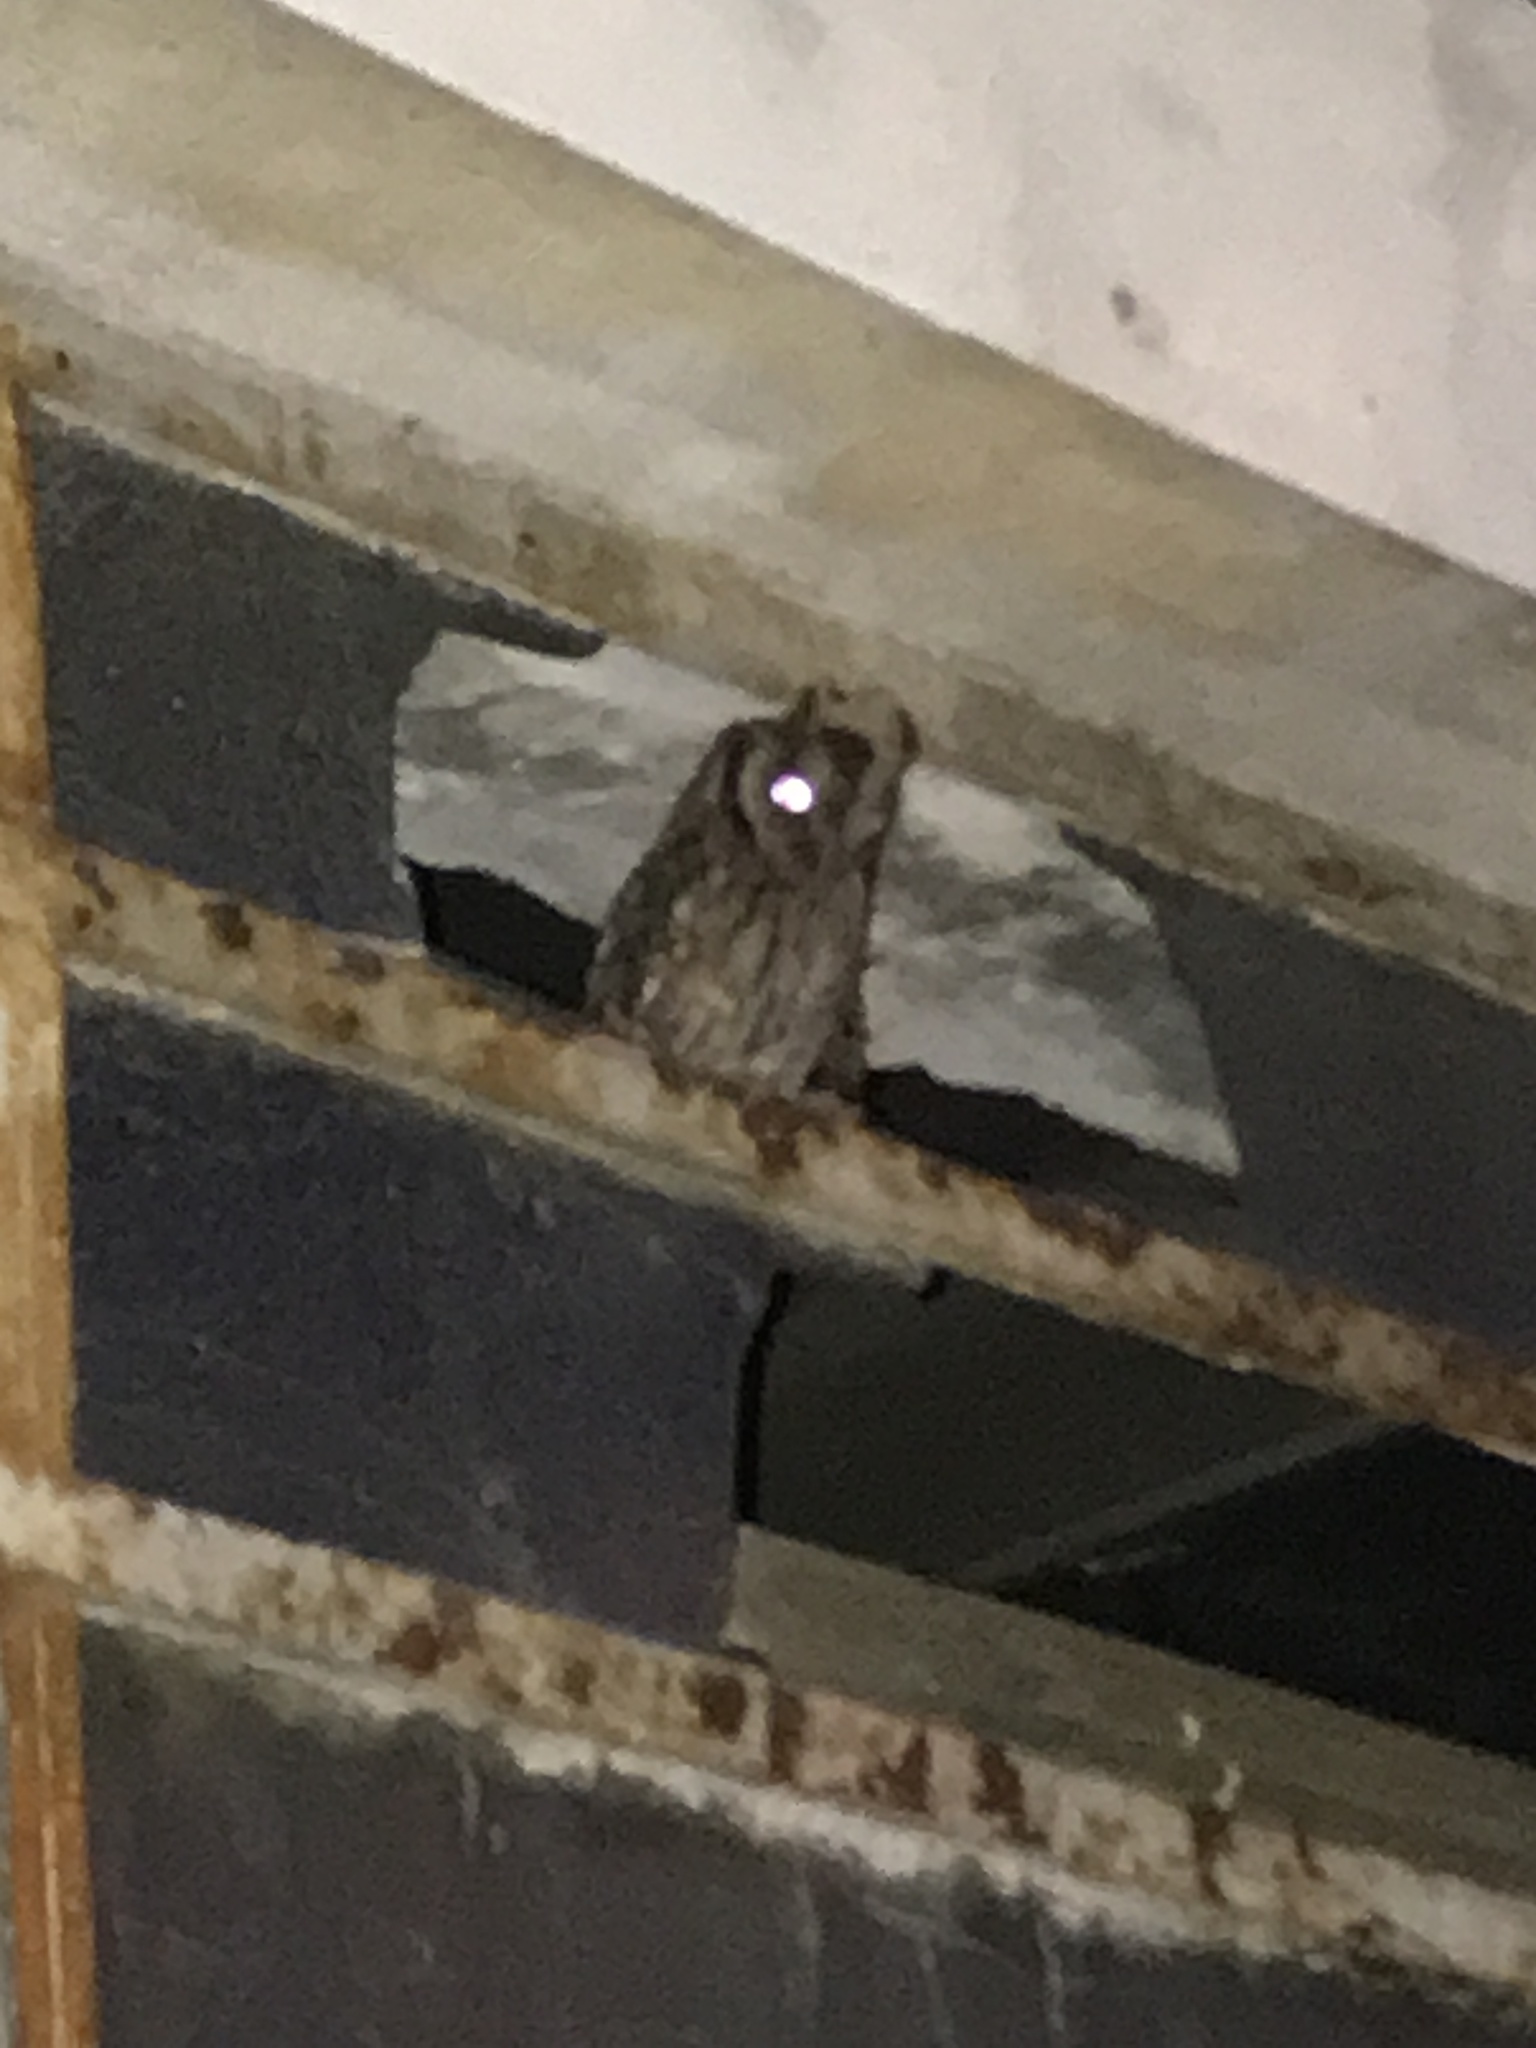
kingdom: Animalia
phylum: Chordata
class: Aves
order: Strigiformes
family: Strigidae
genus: Megascops
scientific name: Megascops choliba
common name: Tropical screech-owl
